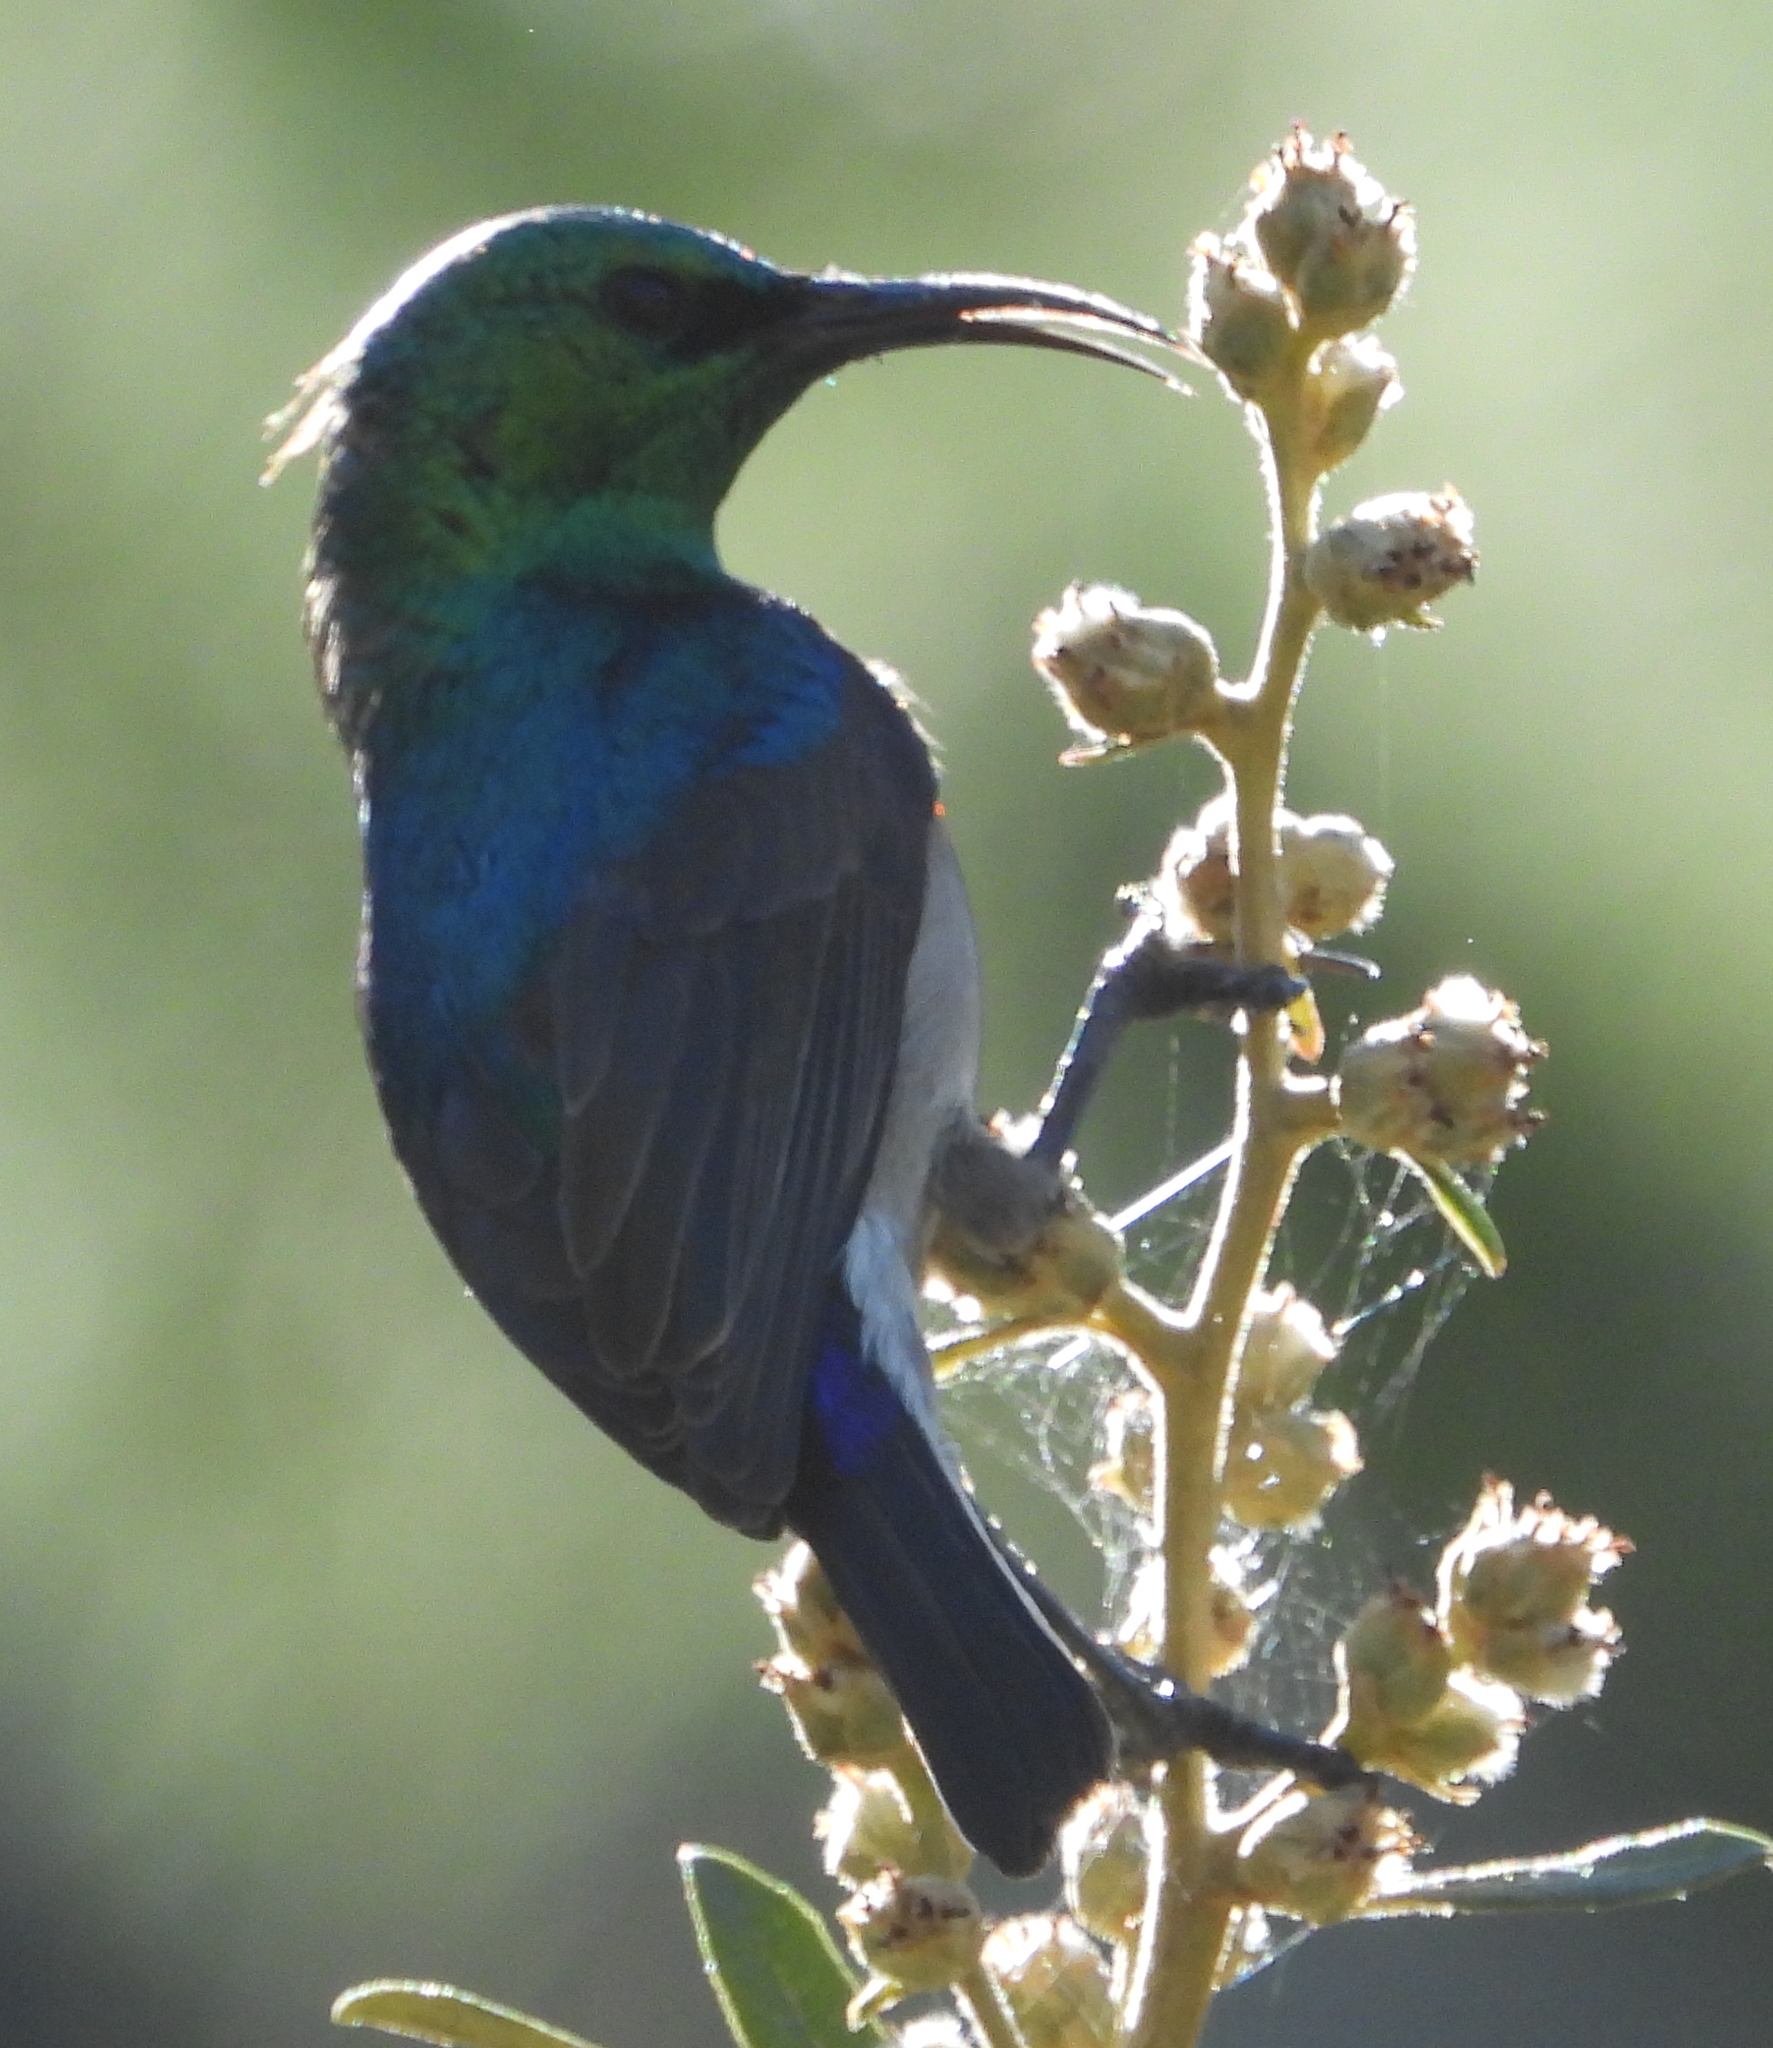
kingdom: Animalia
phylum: Chordata
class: Aves
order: Passeriformes
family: Nectariniidae
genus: Cinnyris
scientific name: Cinnyris chalybeus
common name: Southern double-collared sunbird
